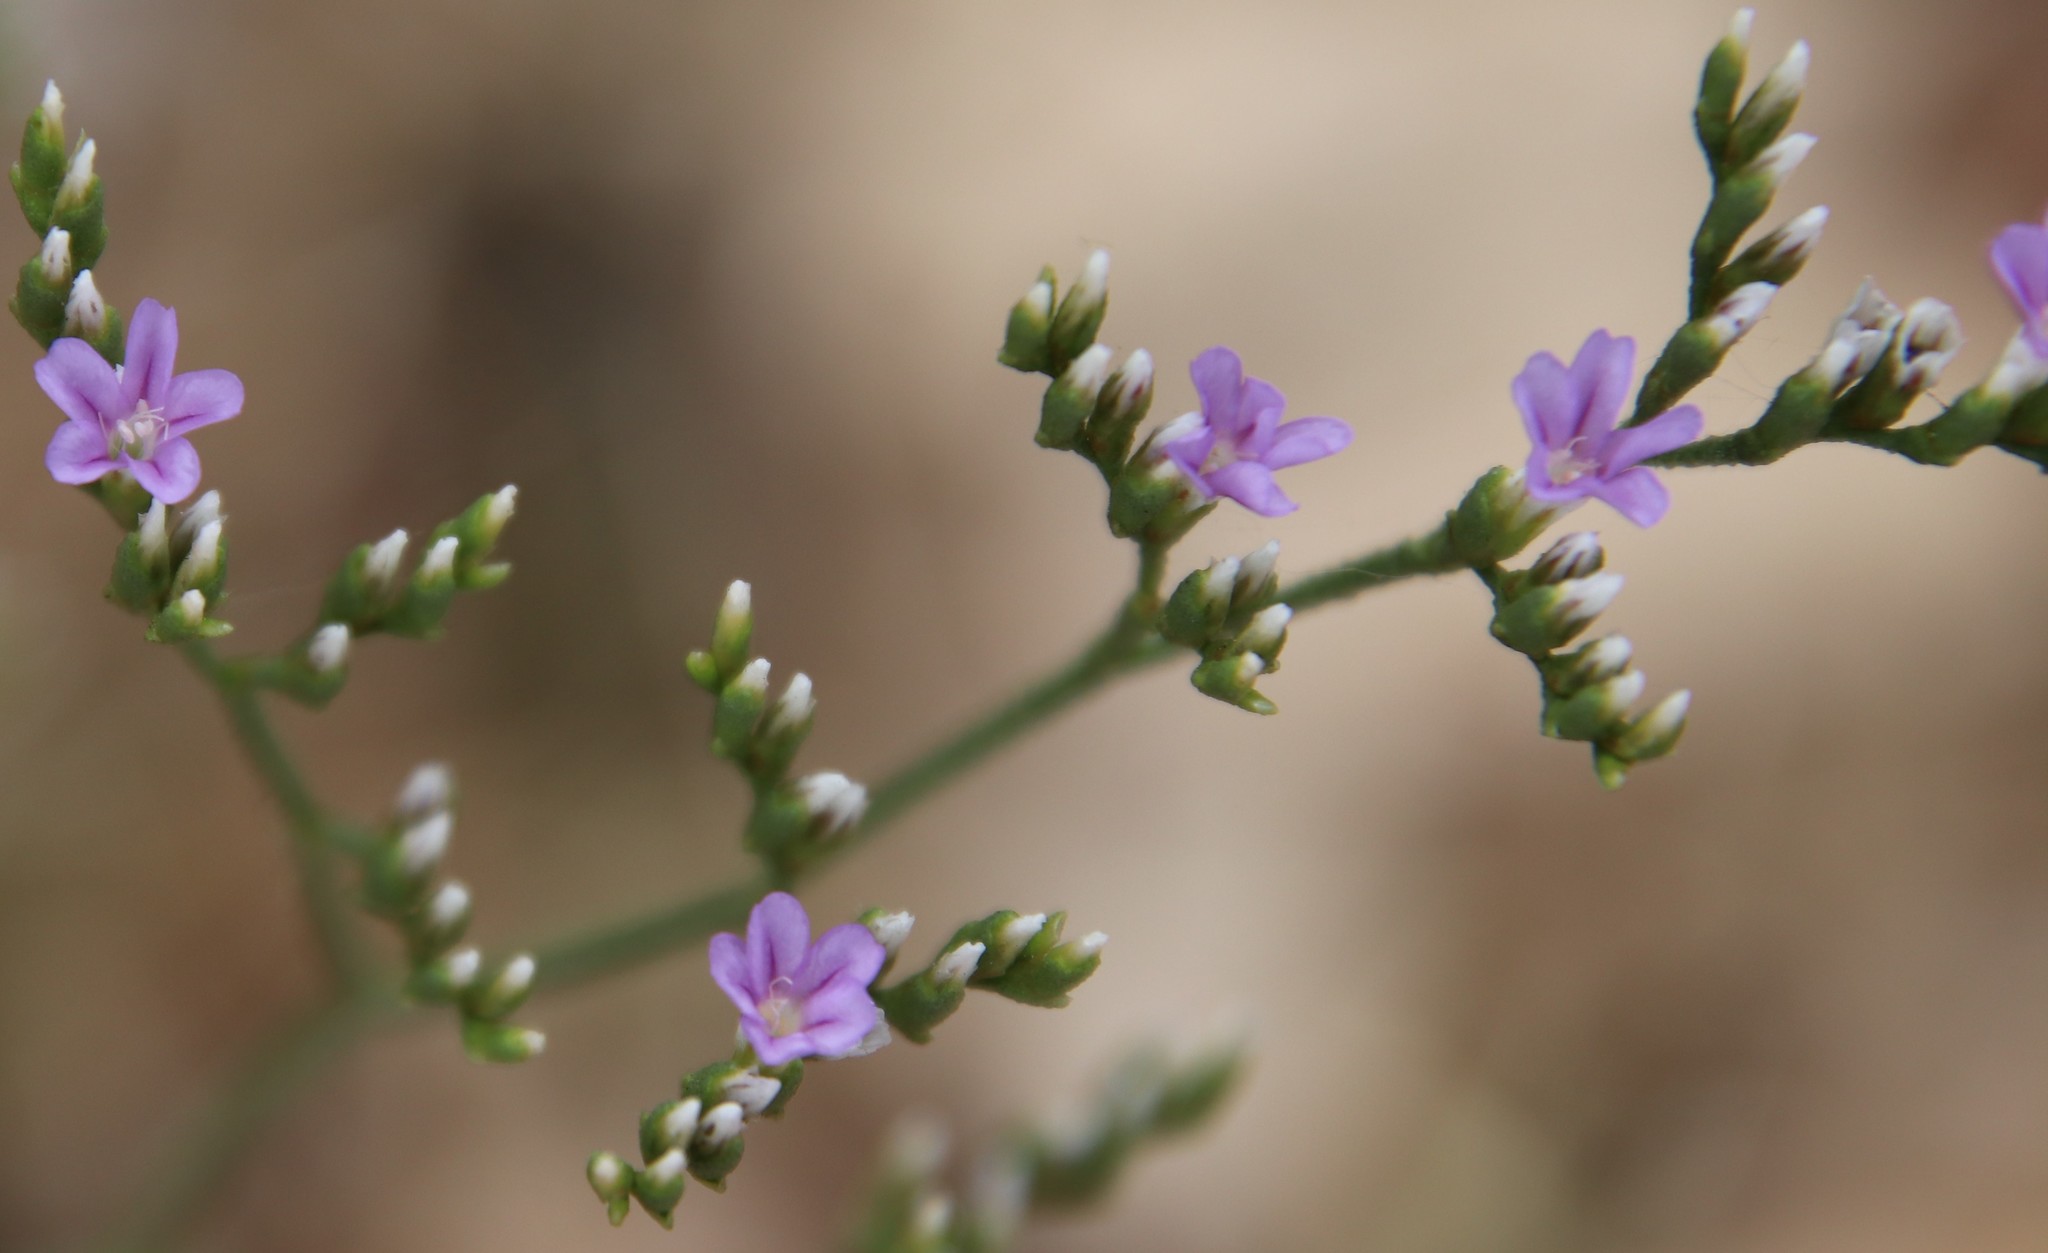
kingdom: Plantae
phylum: Tracheophyta
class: Magnoliopsida
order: Caryophyllales
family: Plumbaginaceae
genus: Limonium
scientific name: Limonium ramosissimum
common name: Algerian sea lavender
